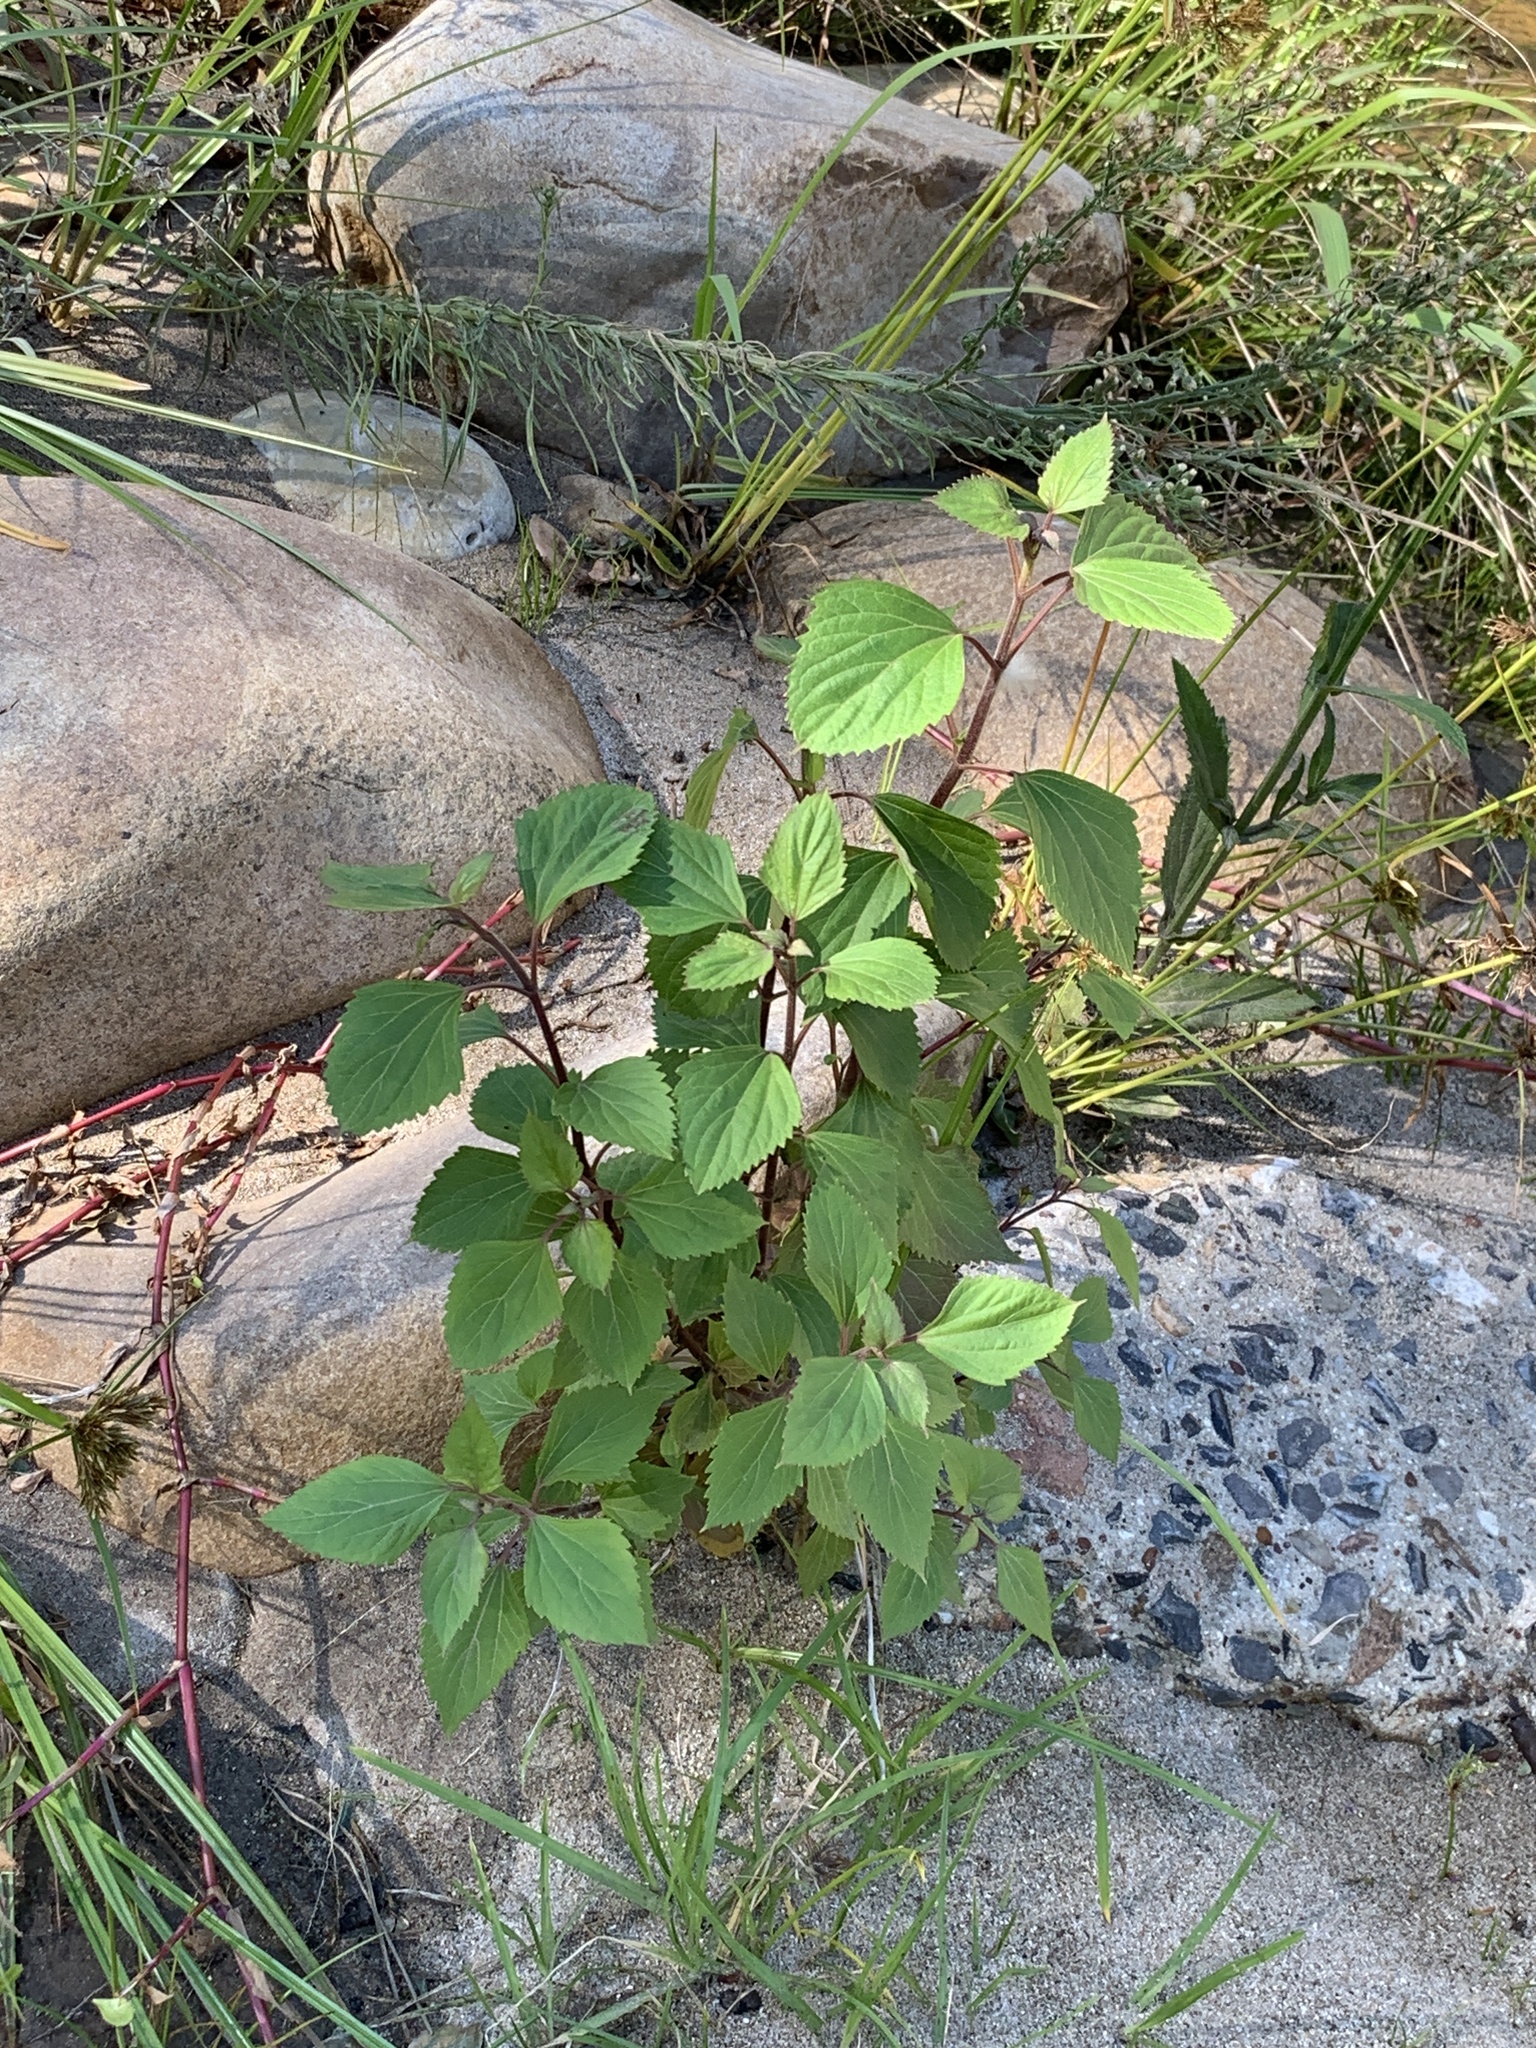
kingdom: Plantae
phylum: Tracheophyta
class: Magnoliopsida
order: Asterales
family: Asteraceae
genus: Ageratina
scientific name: Ageratina adenophora
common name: Sticky snakeroot
